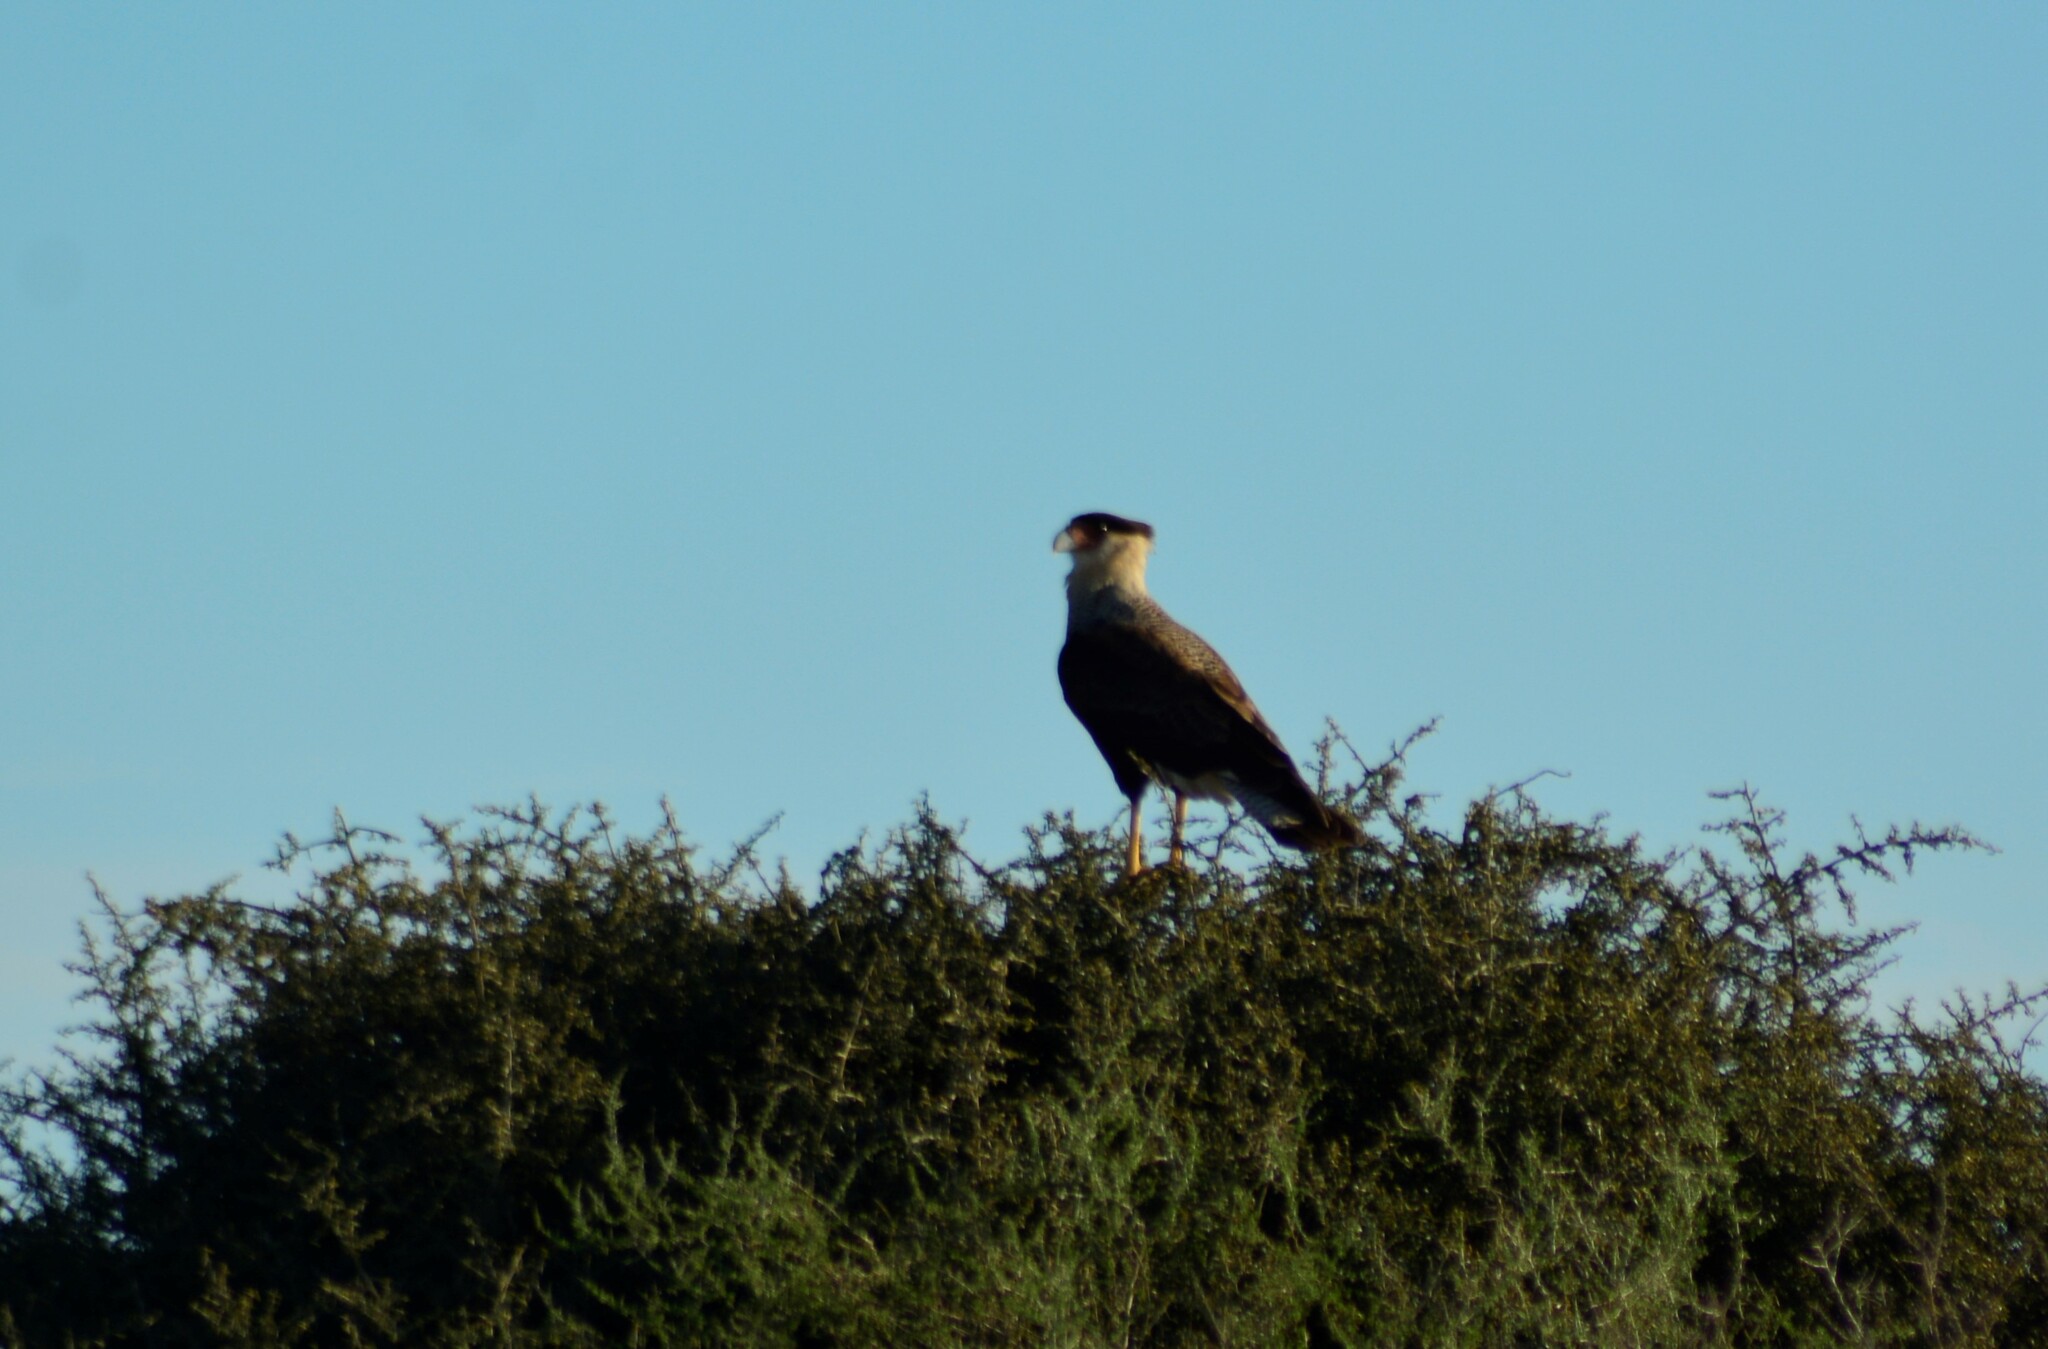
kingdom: Animalia
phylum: Chordata
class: Aves
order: Falconiformes
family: Falconidae
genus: Caracara
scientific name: Caracara plancus
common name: Southern caracara
